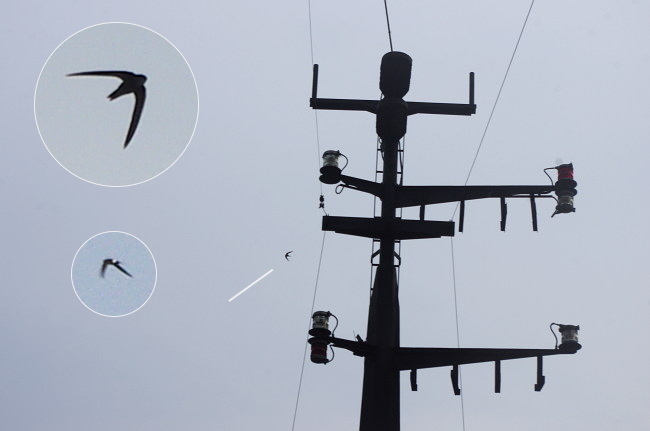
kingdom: Animalia
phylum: Chordata
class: Aves
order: Apodiformes
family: Apodidae
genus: Apus
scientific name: Apus pacificus
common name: Pacific swift
